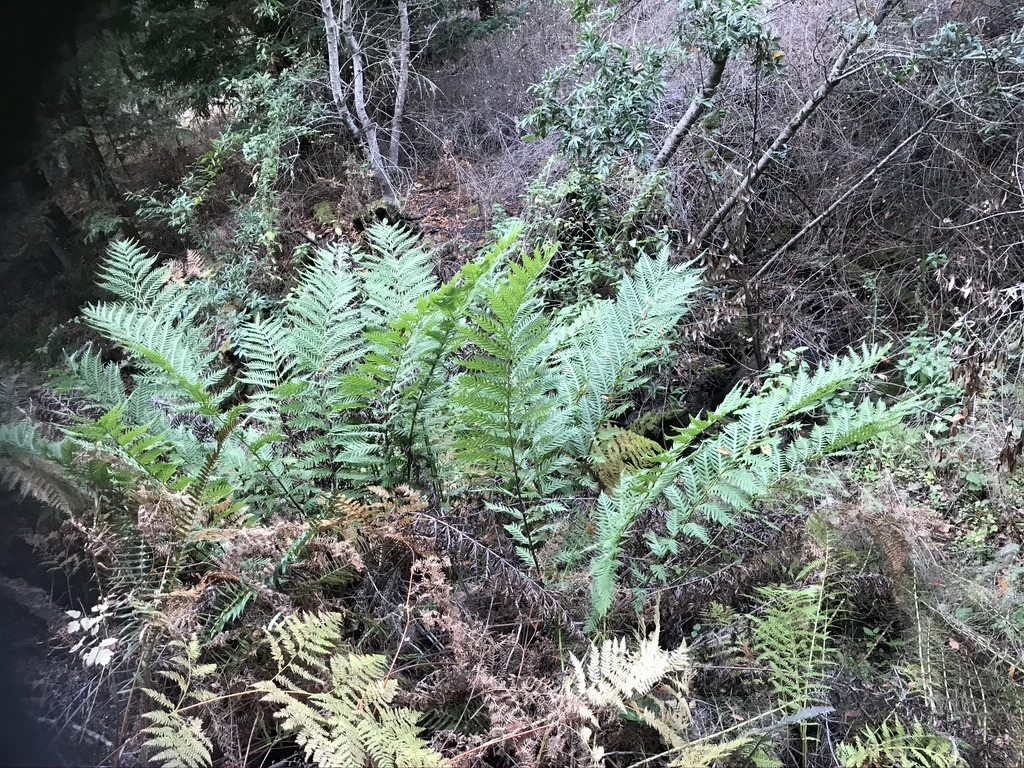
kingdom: Plantae
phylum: Tracheophyta
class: Polypodiopsida
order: Polypodiales
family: Blechnaceae
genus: Woodwardia
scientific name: Woodwardia fimbriata
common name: Giant chain fern
